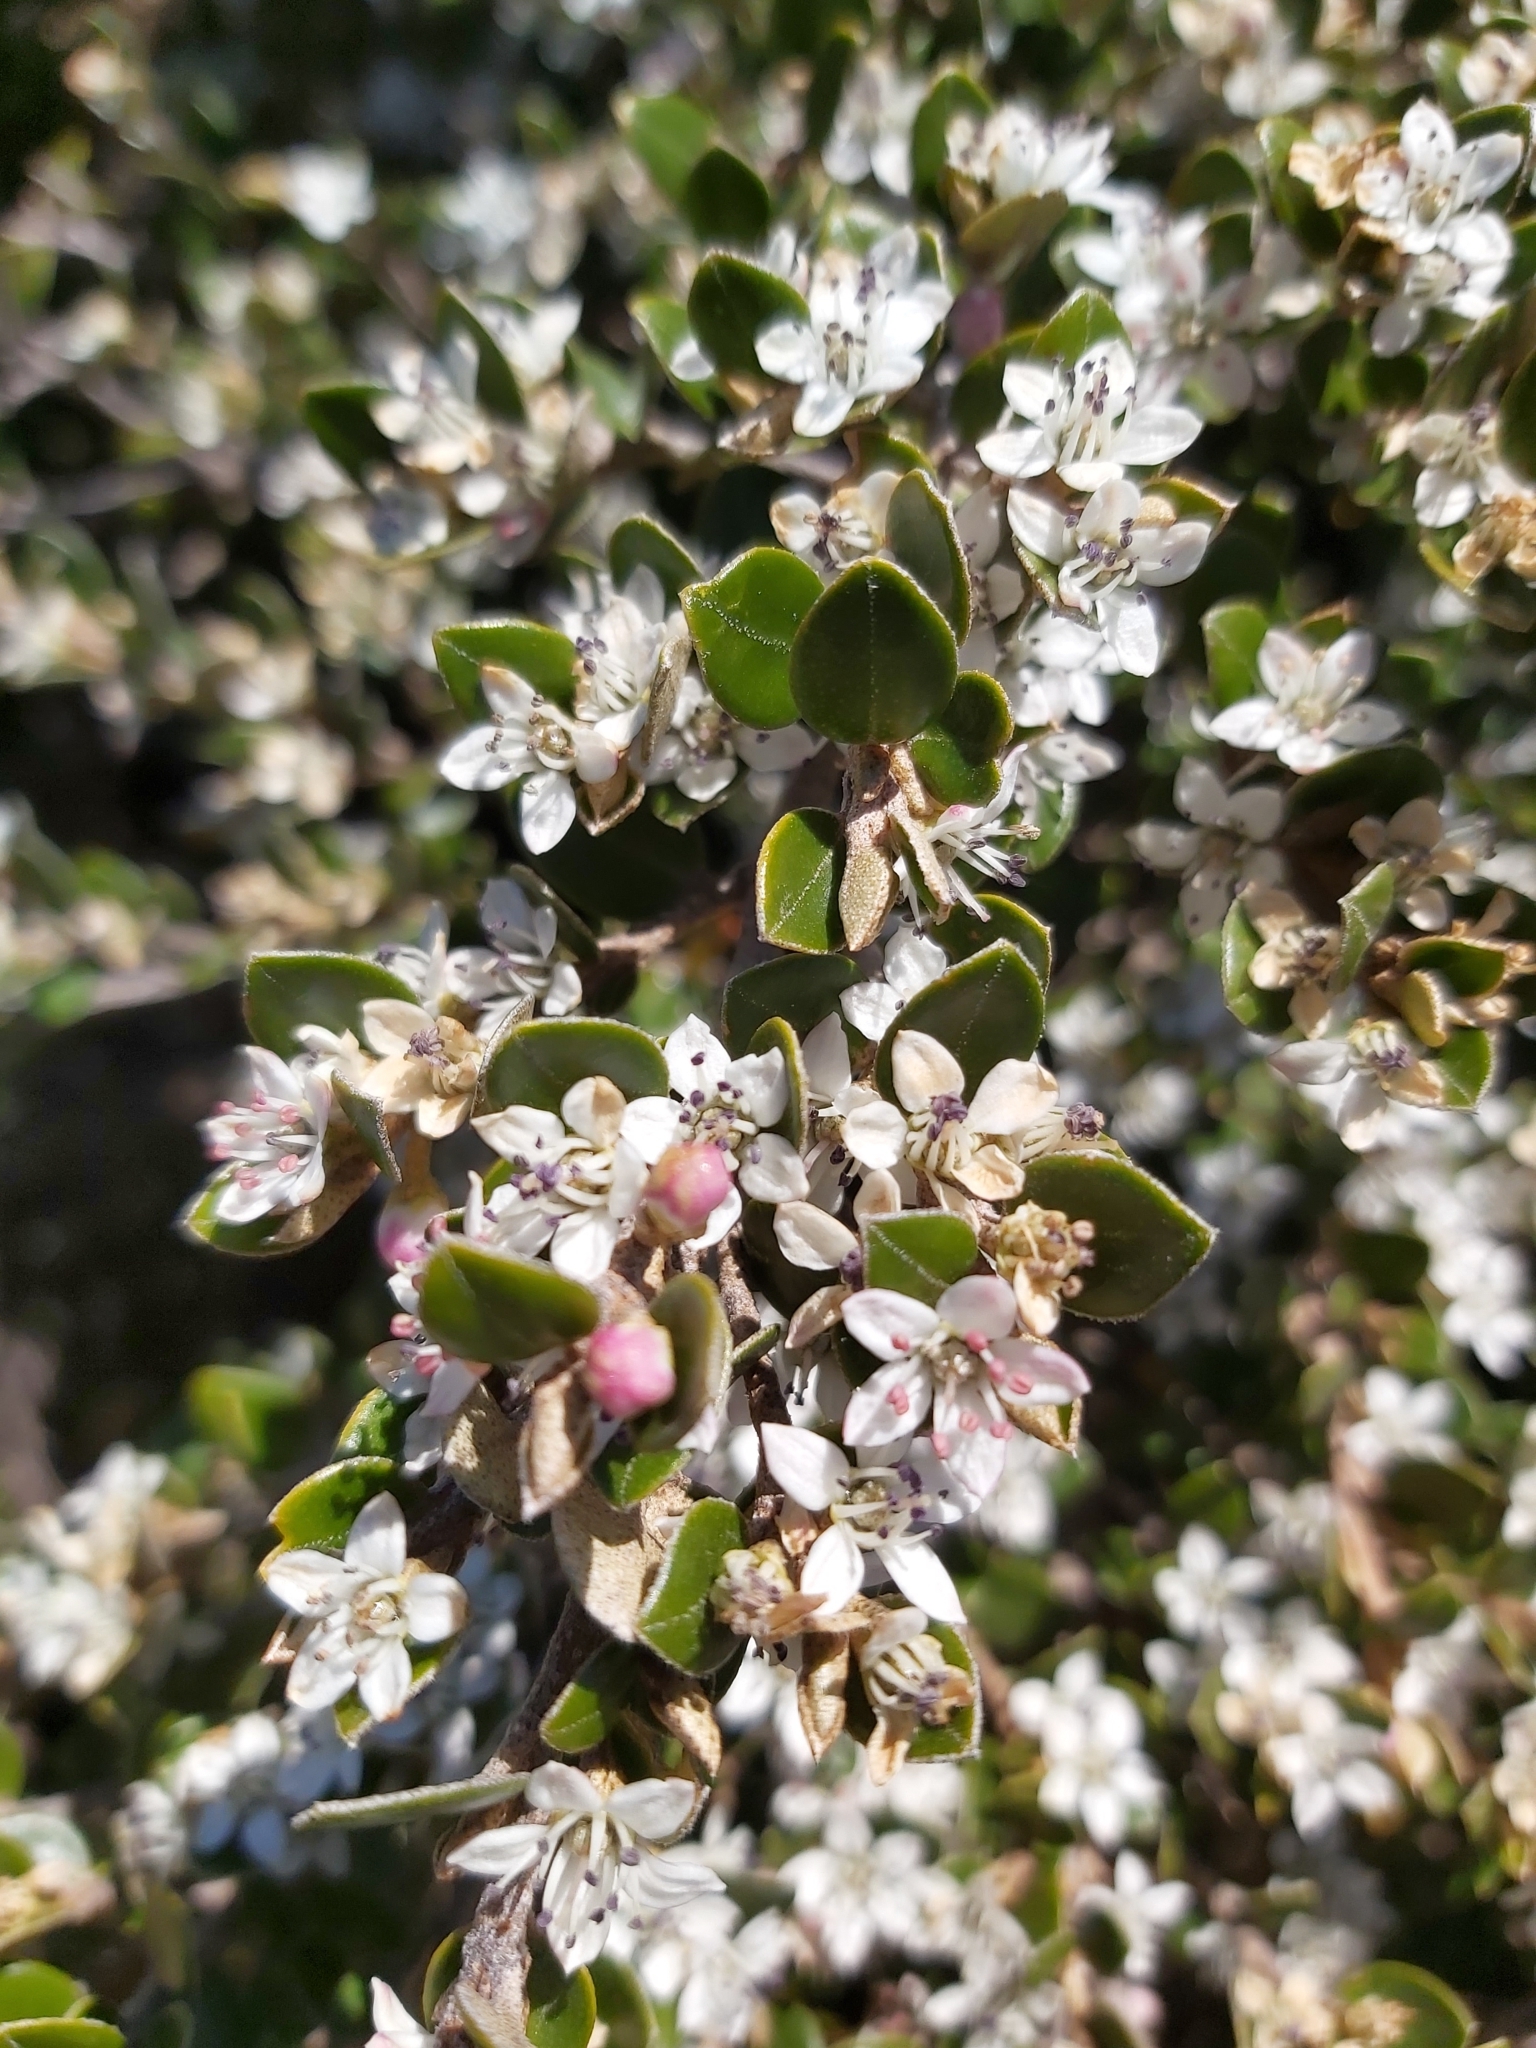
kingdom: Plantae
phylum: Tracheophyta
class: Magnoliopsida
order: Sapindales
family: Rutaceae
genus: Nematolepis
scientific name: Nematolepis ovatifolia
